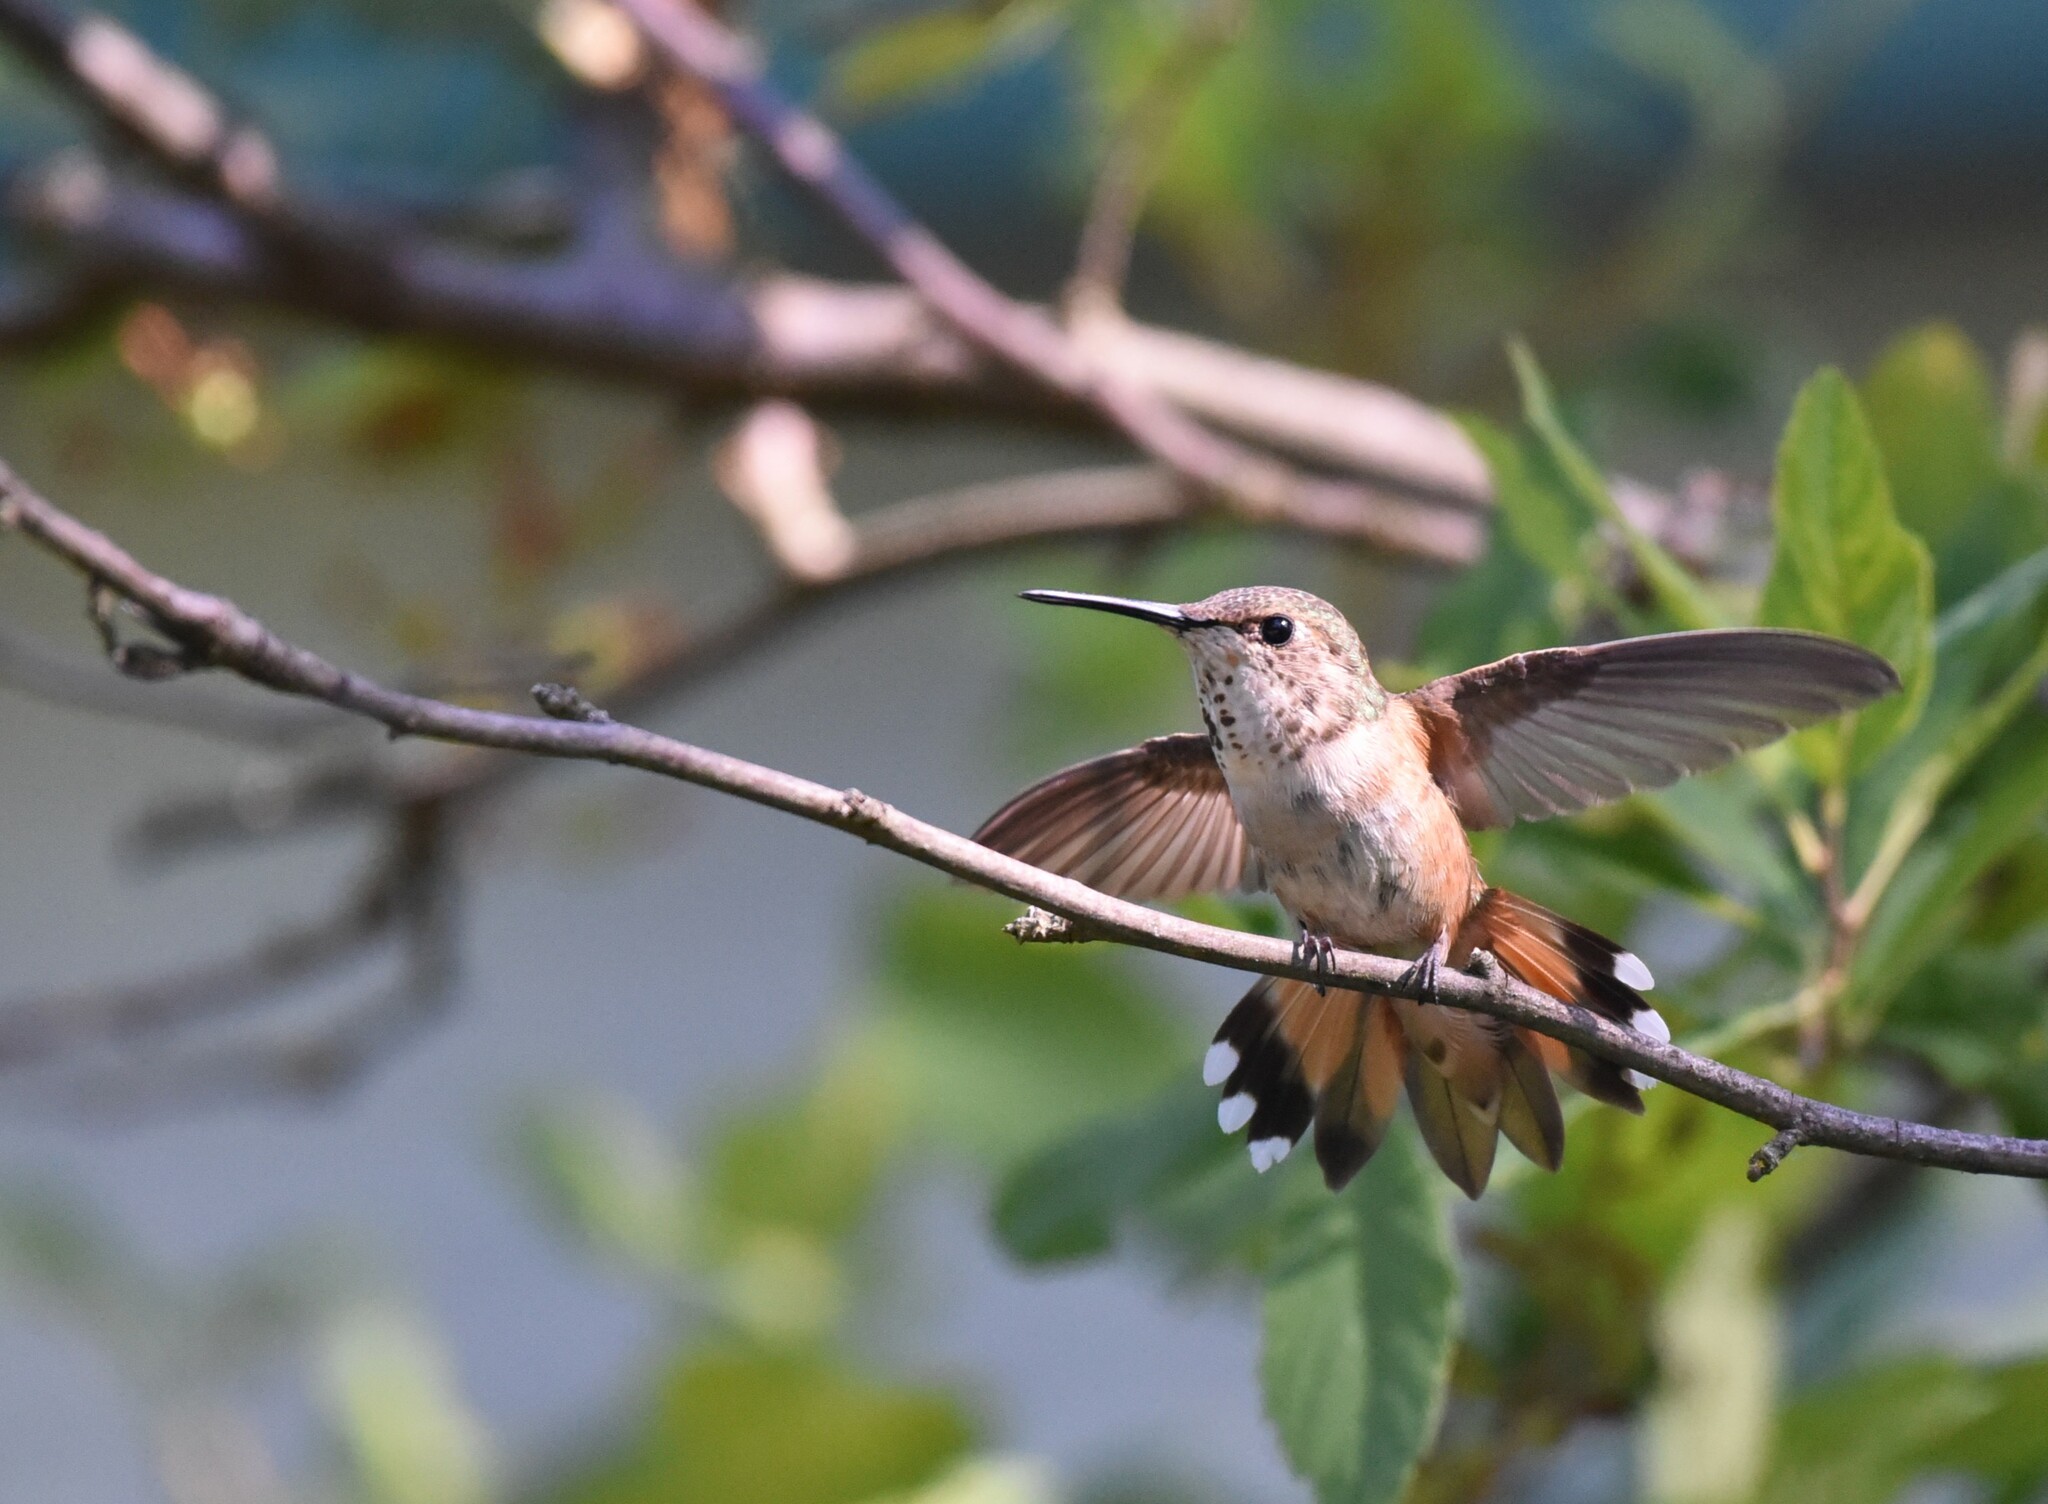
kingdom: Animalia
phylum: Chordata
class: Aves
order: Apodiformes
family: Trochilidae
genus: Selasphorus
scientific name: Selasphorus rufus
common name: Rufous hummingbird
